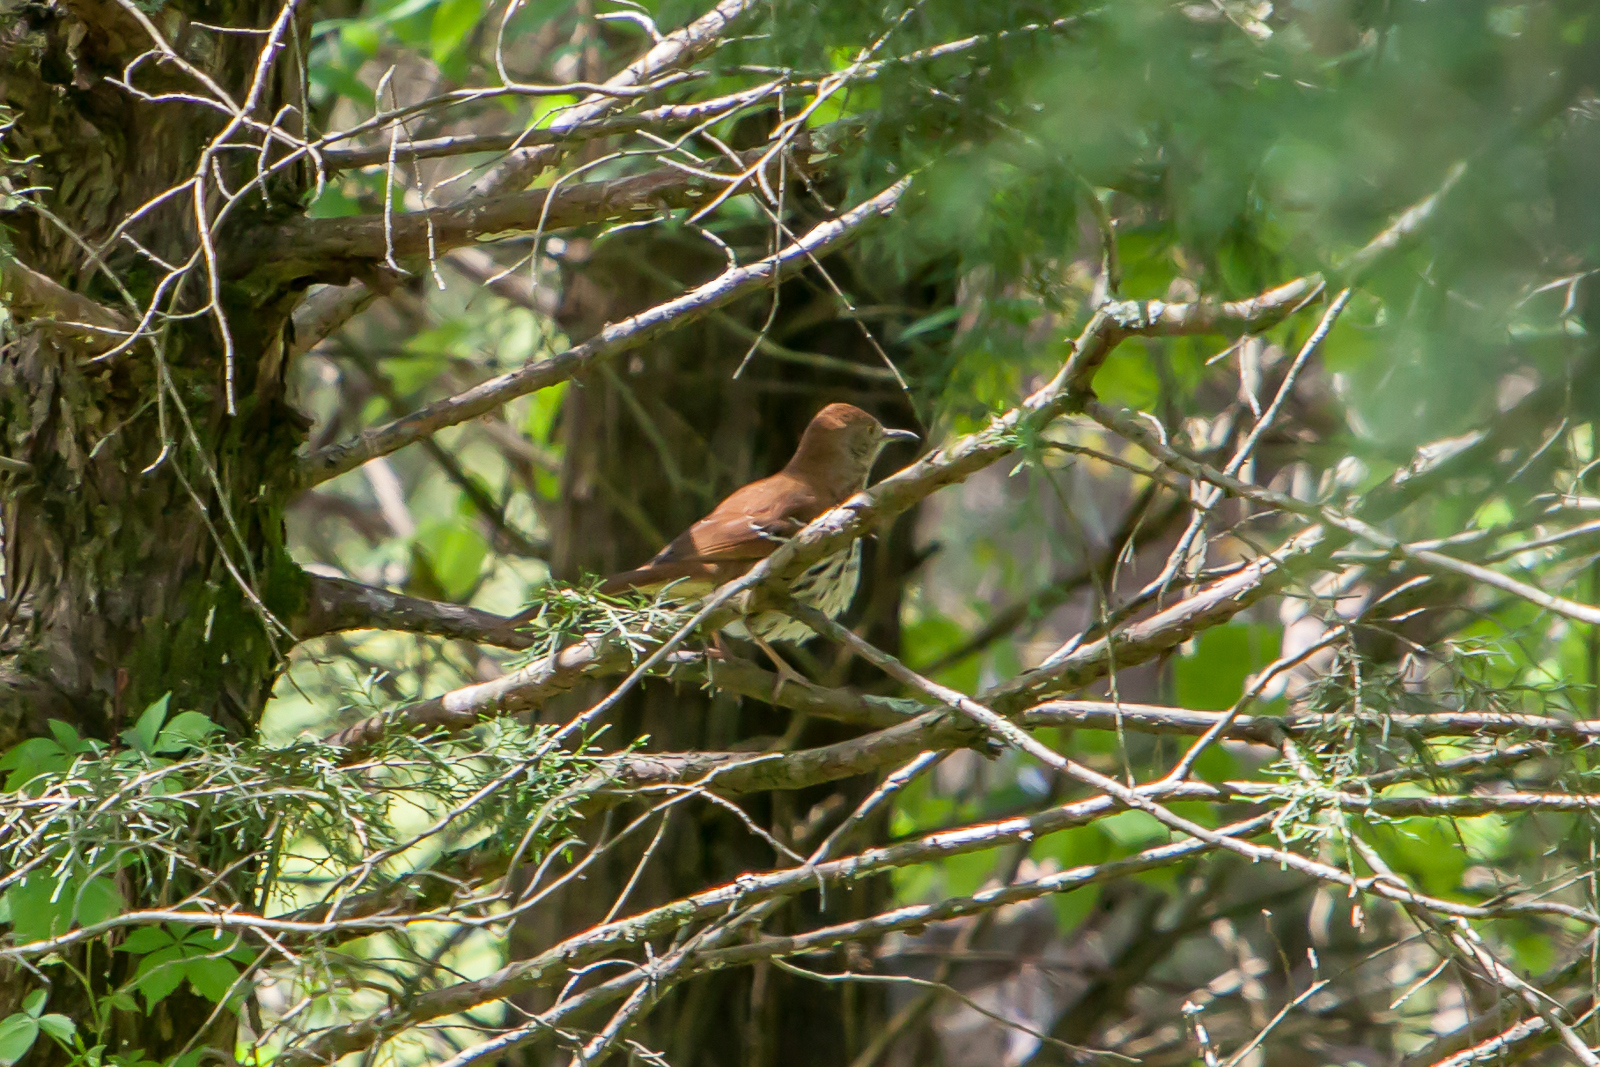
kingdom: Animalia
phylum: Chordata
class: Aves
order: Passeriformes
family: Mimidae
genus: Toxostoma
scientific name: Toxostoma rufum
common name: Brown thrasher
